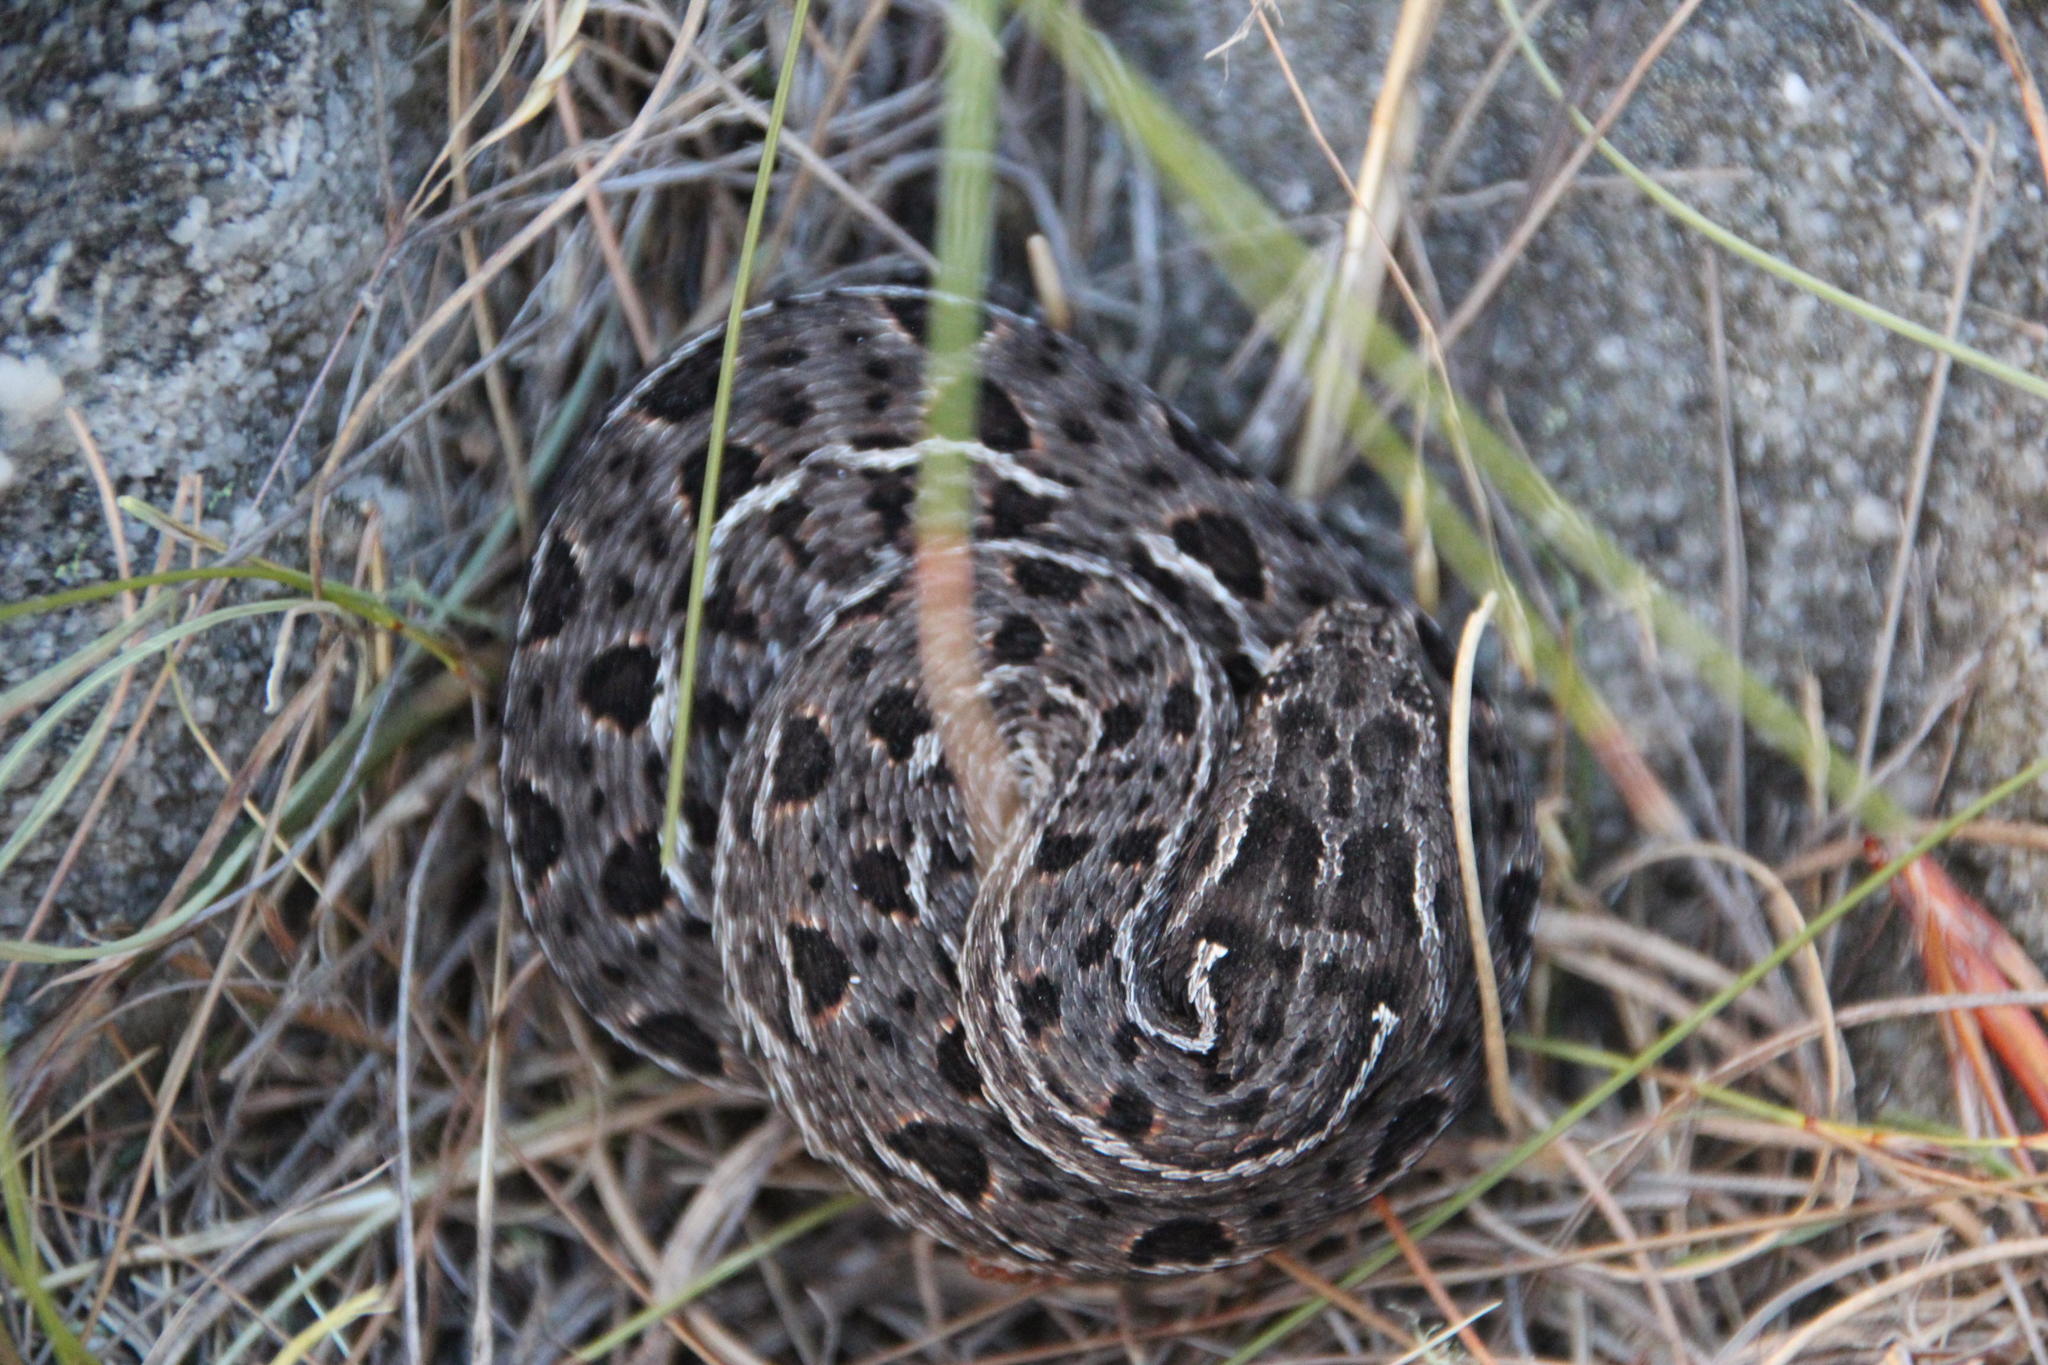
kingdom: Animalia
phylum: Chordata
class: Squamata
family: Viperidae
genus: Bitis
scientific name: Bitis atropos
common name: Mountain adder
